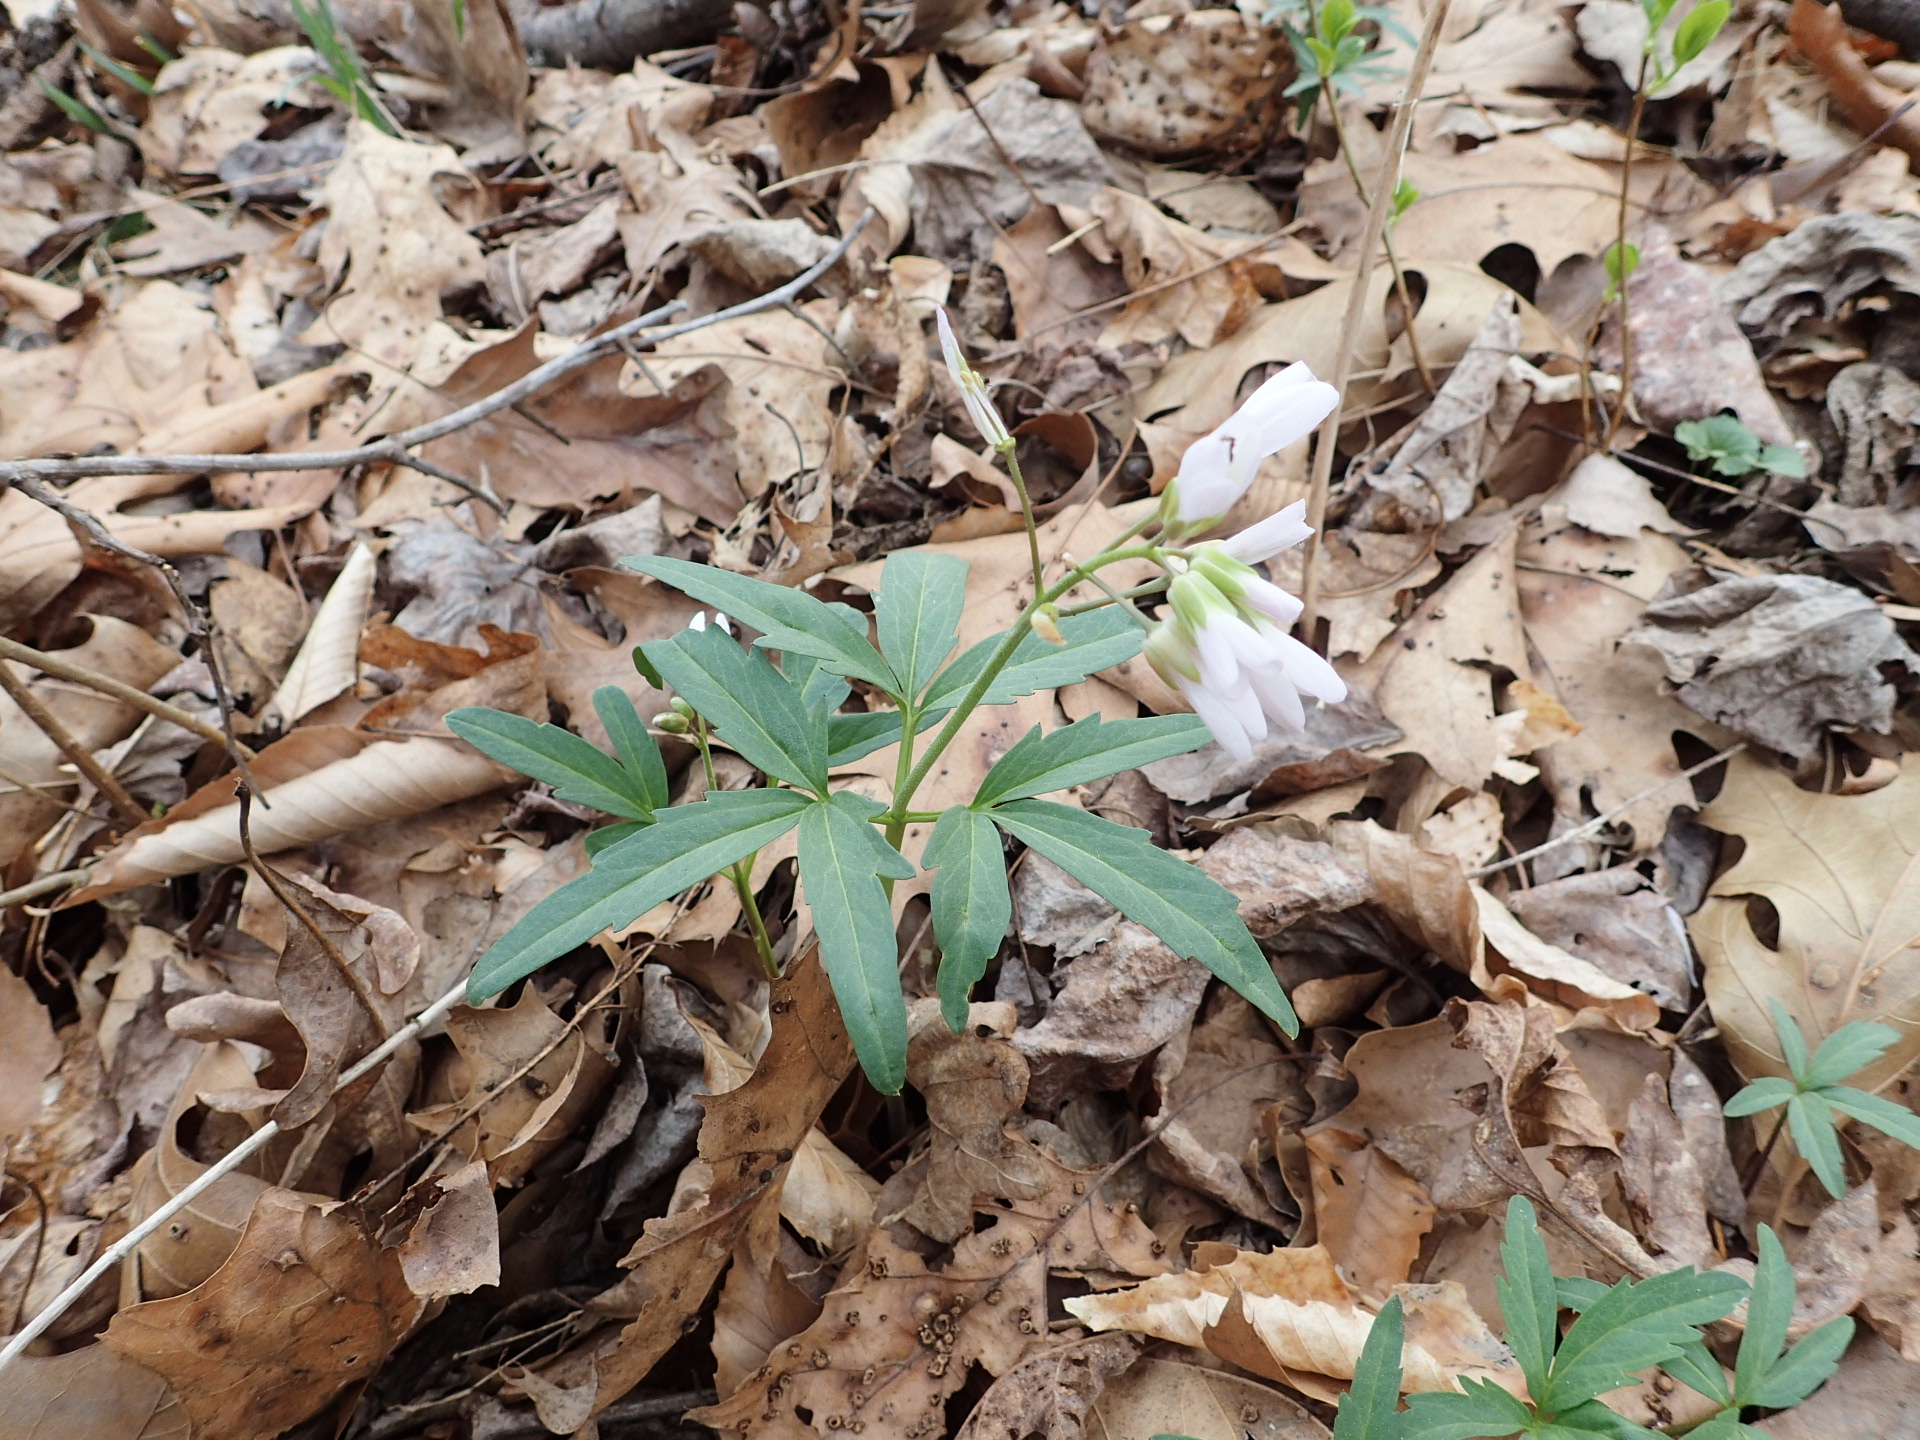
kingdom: Plantae
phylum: Tracheophyta
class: Magnoliopsida
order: Brassicales
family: Brassicaceae
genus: Cardamine
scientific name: Cardamine concatenata
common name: Cut-leaf toothcup
